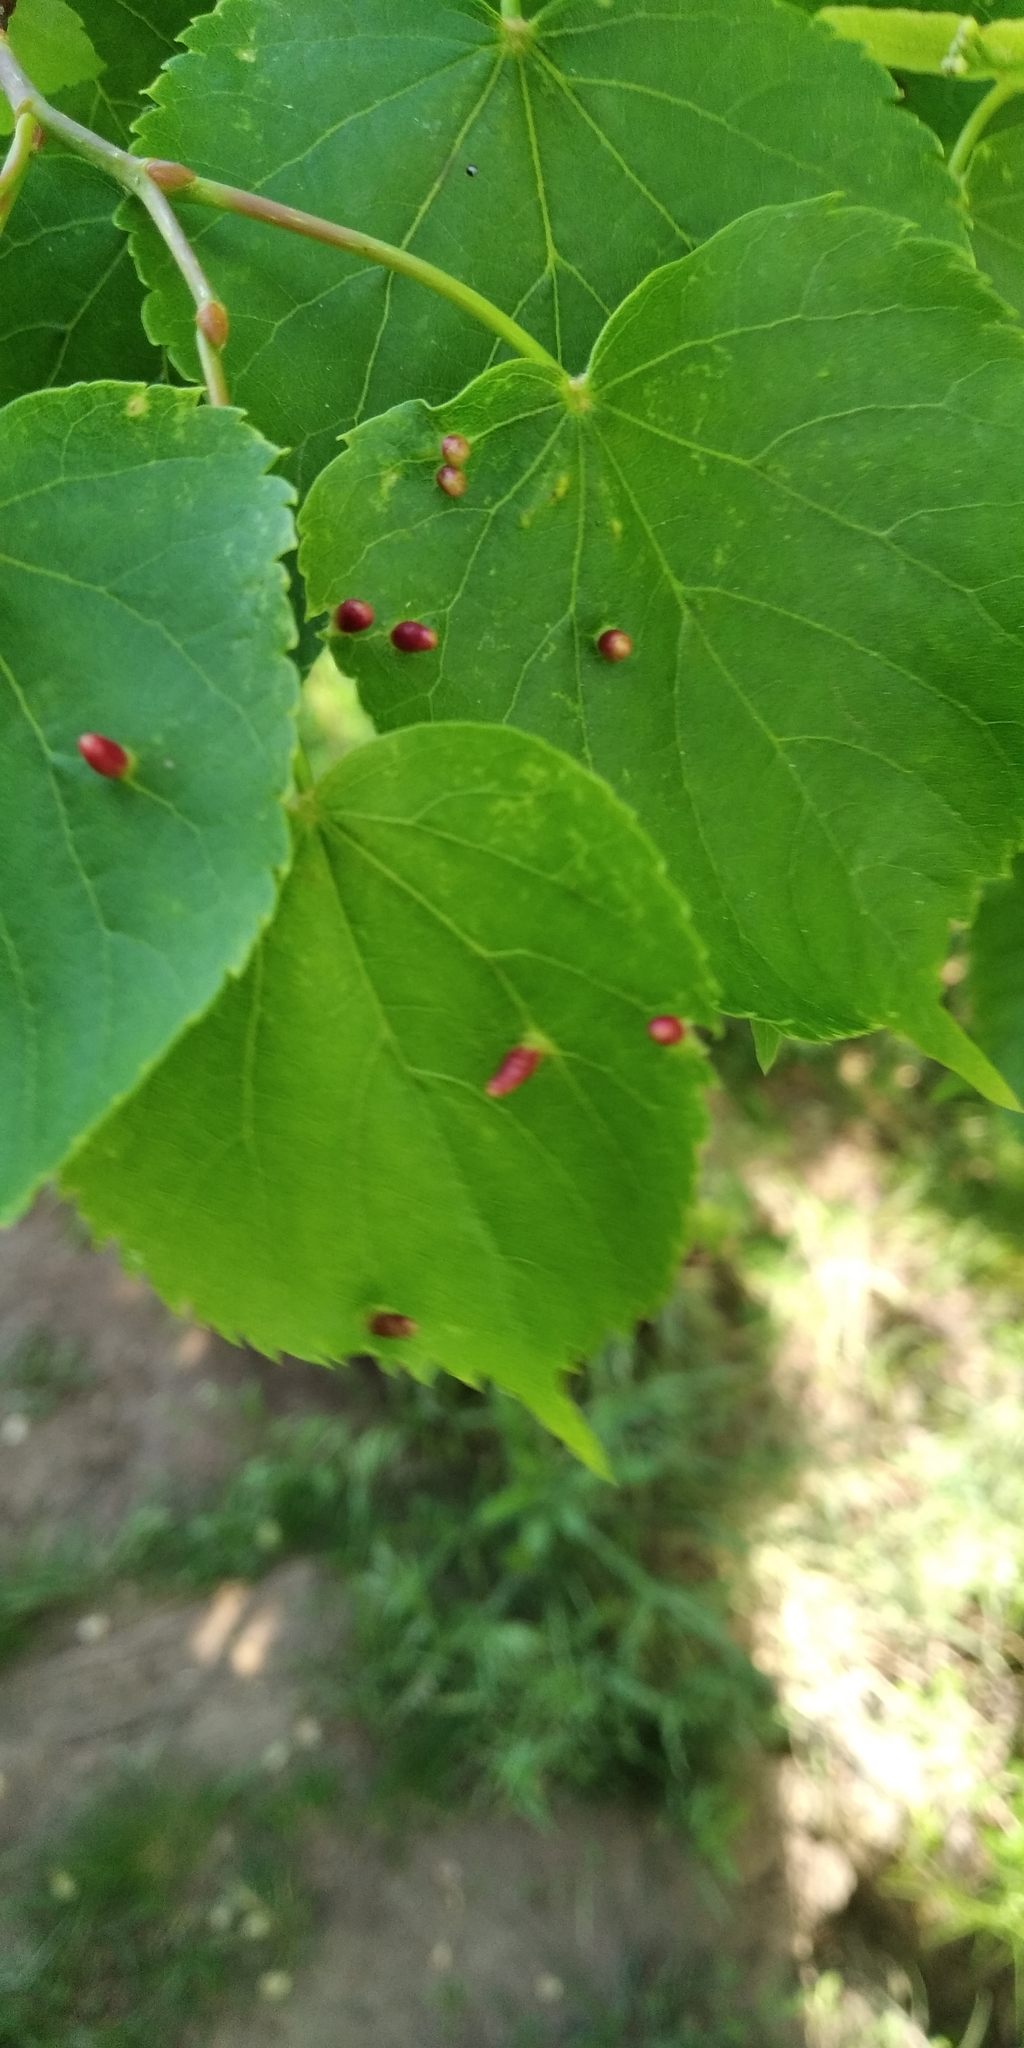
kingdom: Animalia
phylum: Arthropoda
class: Arachnida
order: Trombidiformes
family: Eriophyidae
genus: Eriophyes
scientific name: Eriophyes tiliae
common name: Red nail gall mite
